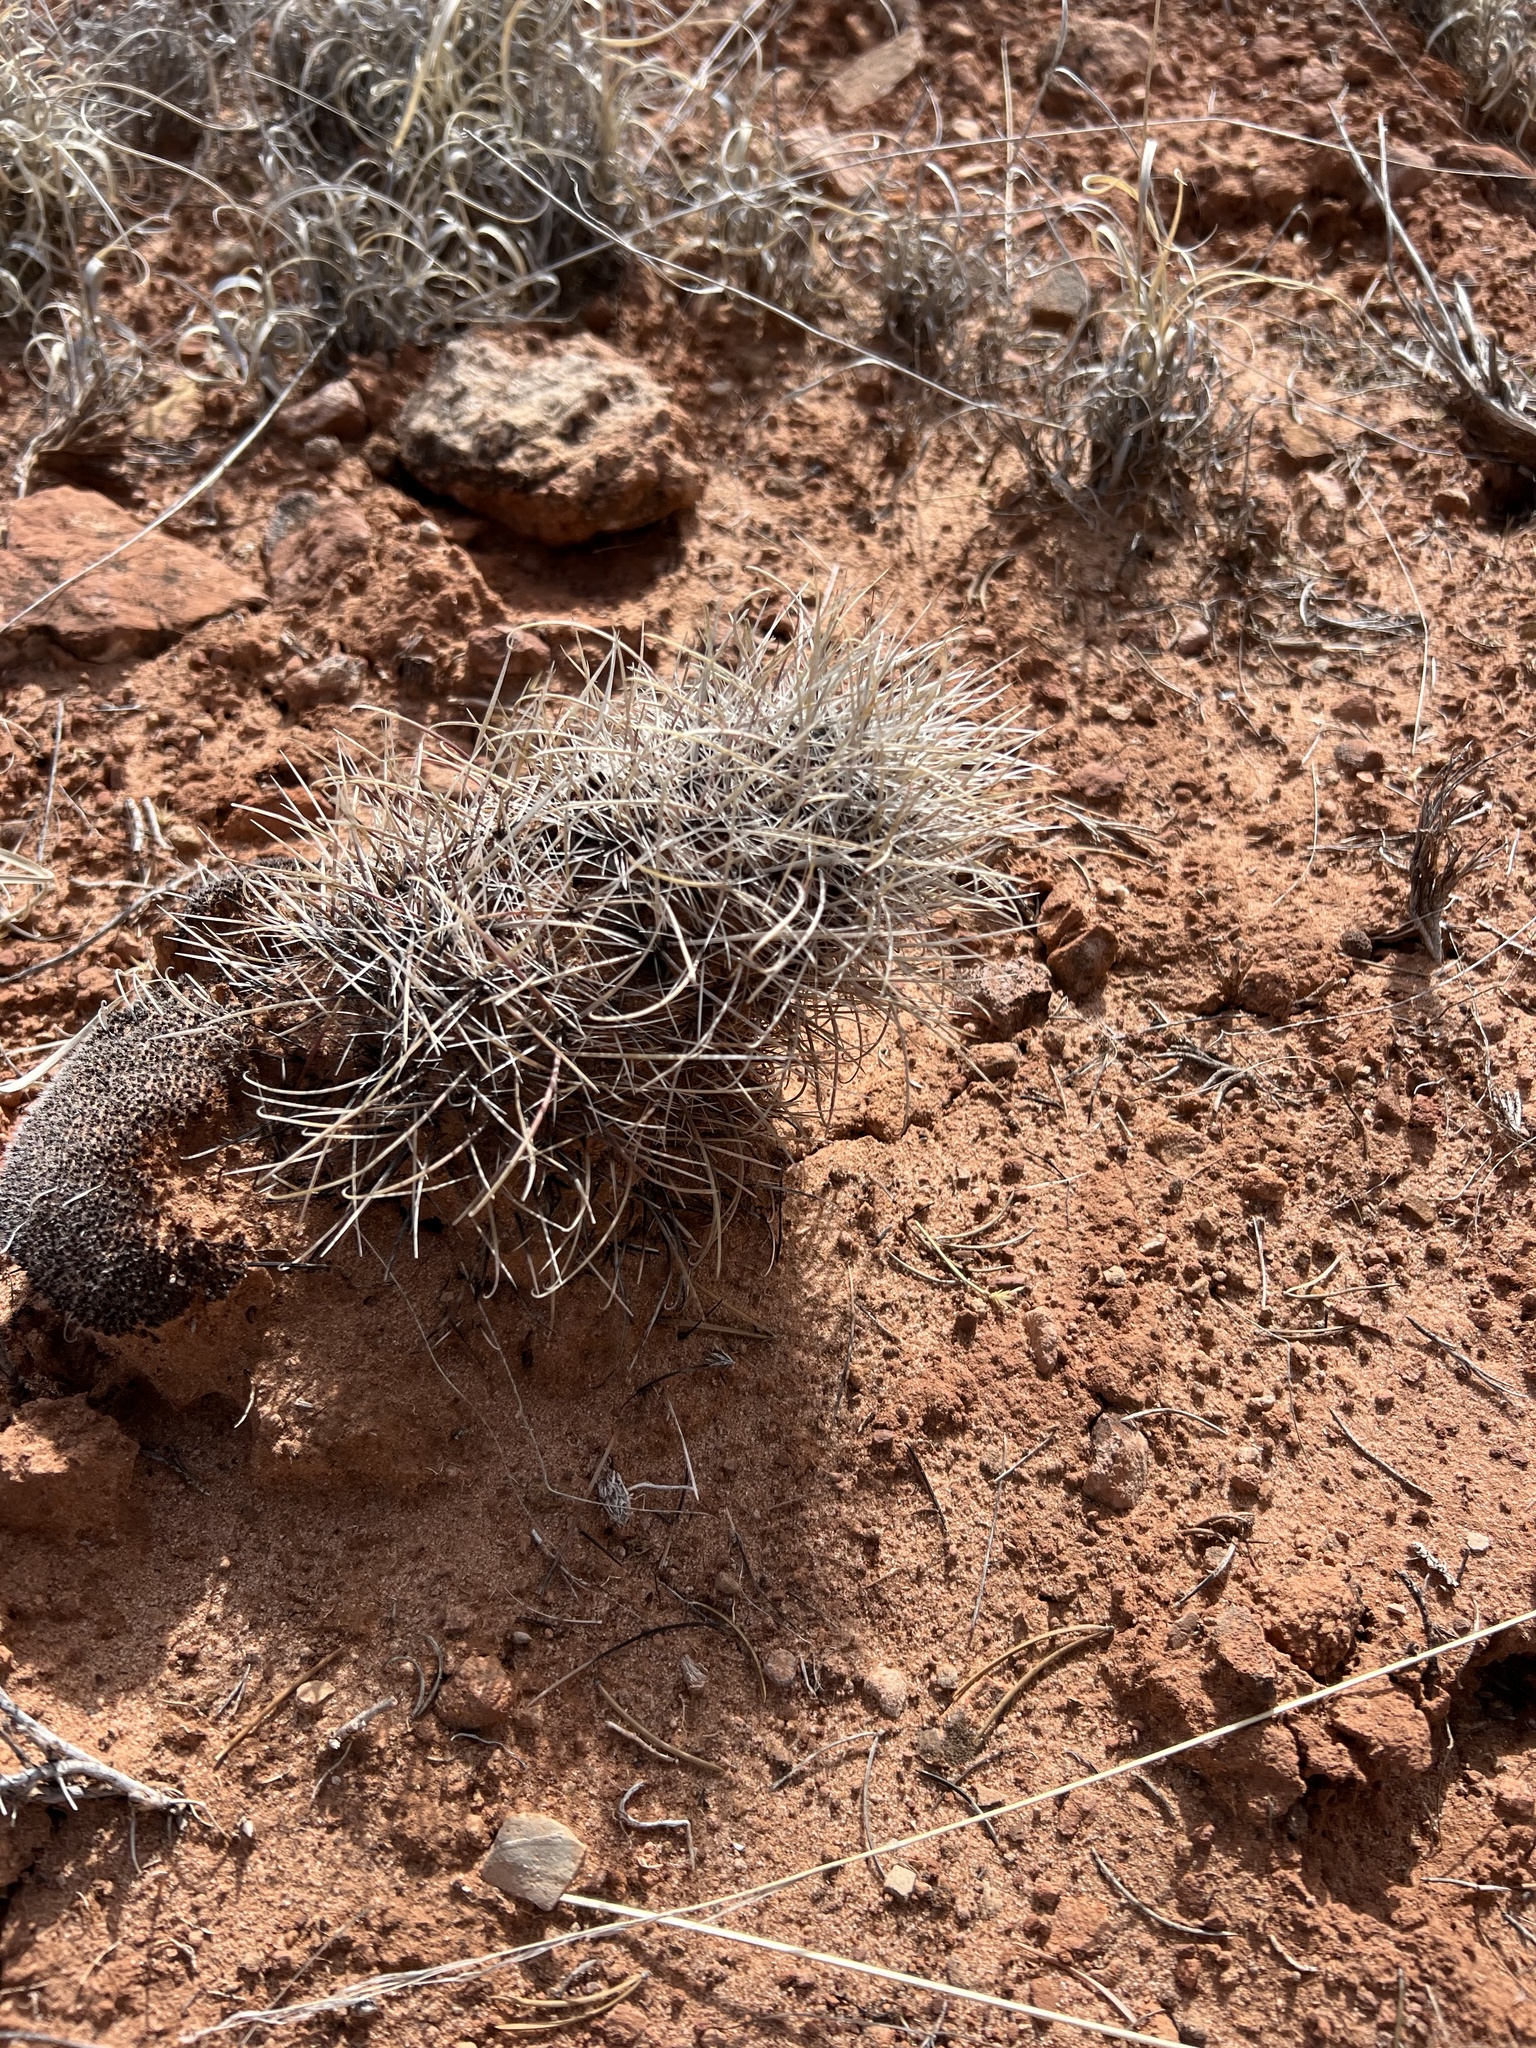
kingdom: Plantae
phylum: Tracheophyta
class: Magnoliopsida
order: Caryophyllales
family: Cactaceae
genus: Sclerocactus
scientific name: Sclerocactus parviflorus
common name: Small-flower fishhook cactus
